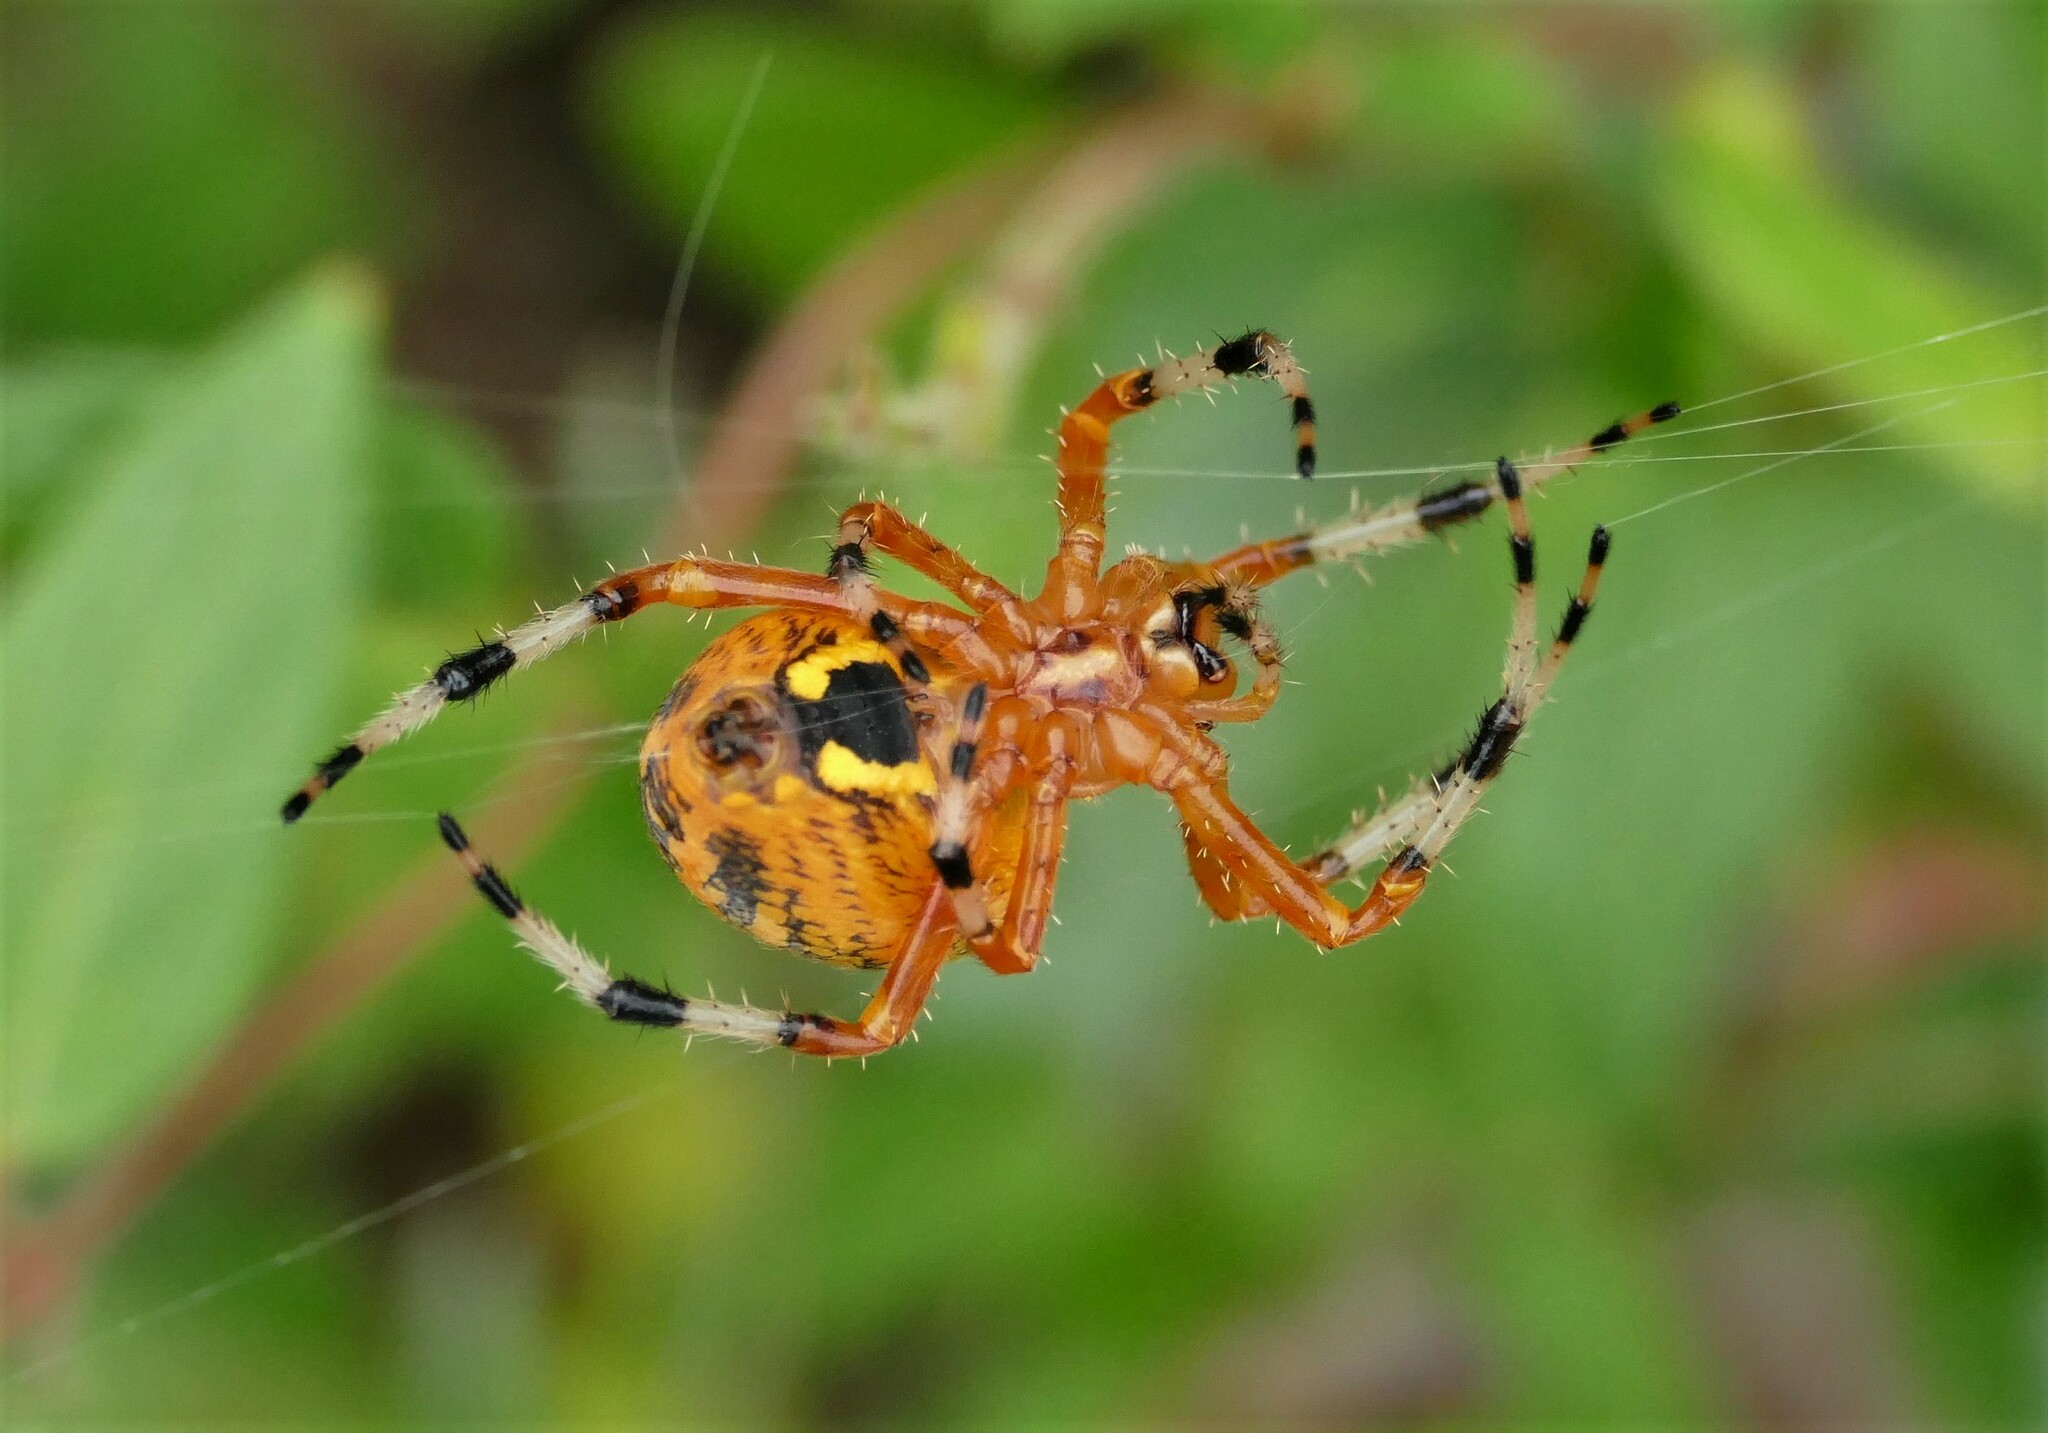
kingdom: Animalia
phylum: Arthropoda
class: Arachnida
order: Araneae
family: Araneidae
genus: Araneus
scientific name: Araneus marmoreus
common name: Marbled orbweaver
